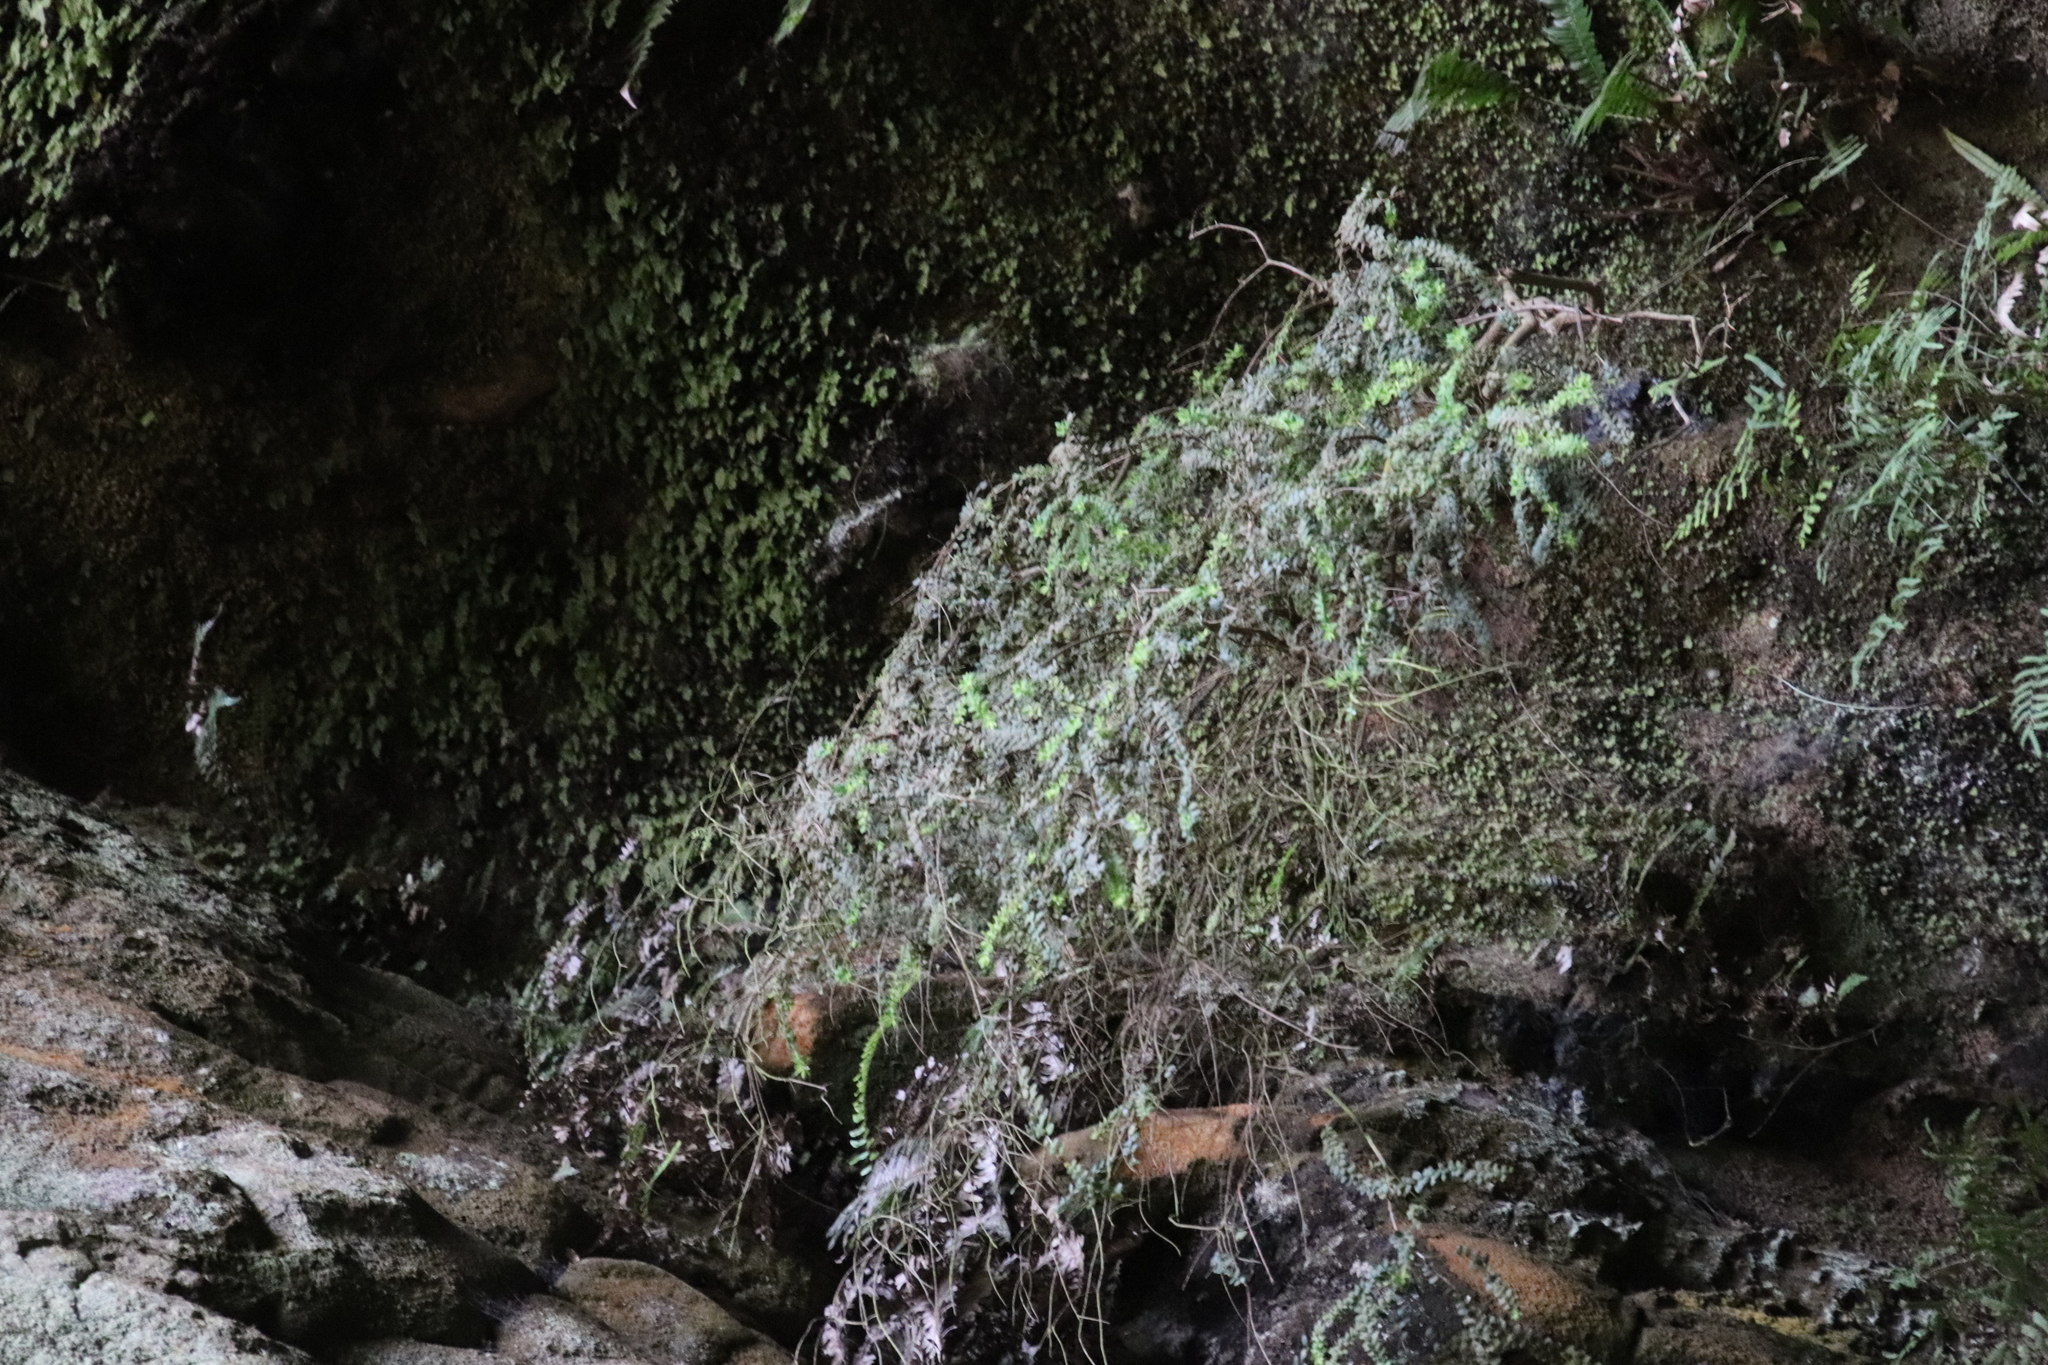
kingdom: Plantae
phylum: Tracheophyta
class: Magnoliopsida
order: Ericales
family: Ericaceae
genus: Erica
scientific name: Erica marifolia
